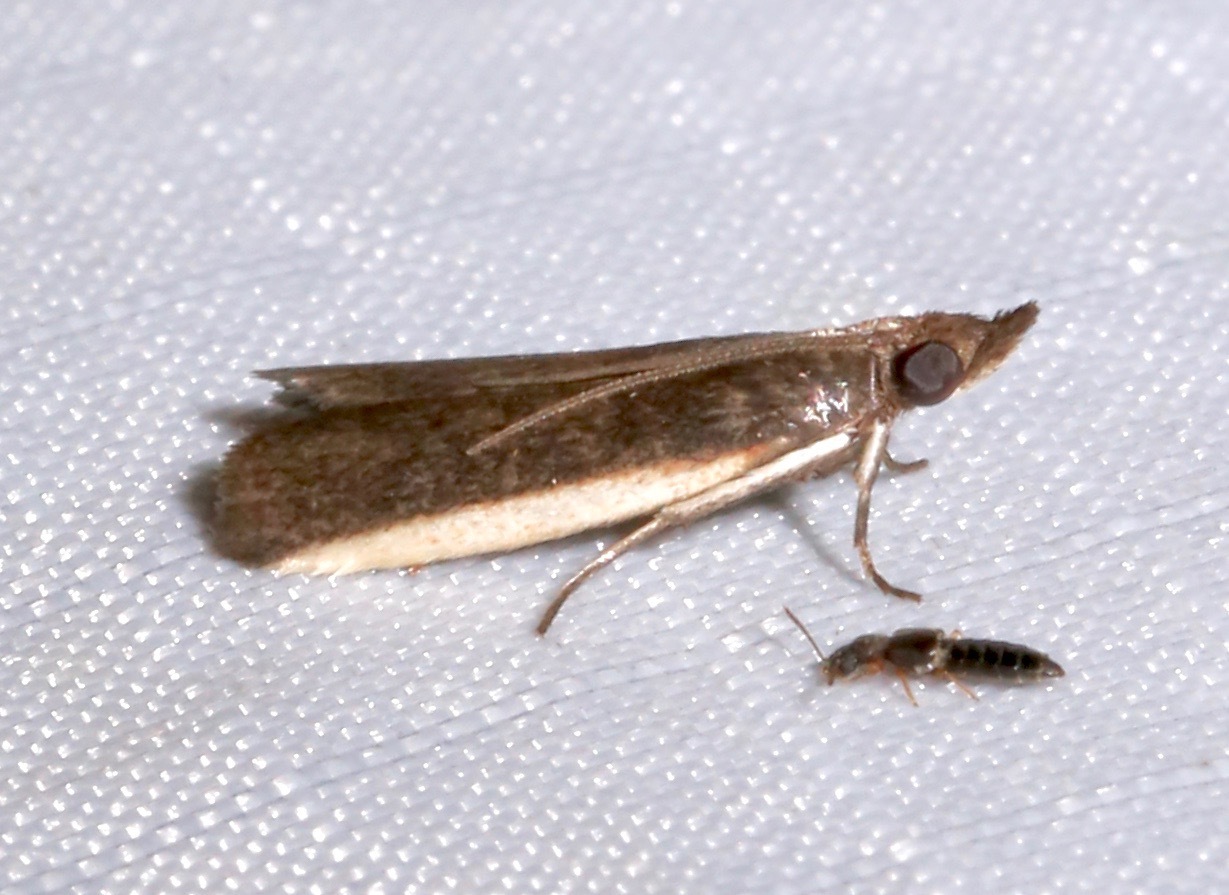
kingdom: Animalia
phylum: Arthropoda
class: Insecta
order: Lepidoptera
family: Pyralidae
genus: Homosassa
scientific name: Homosassa ella
